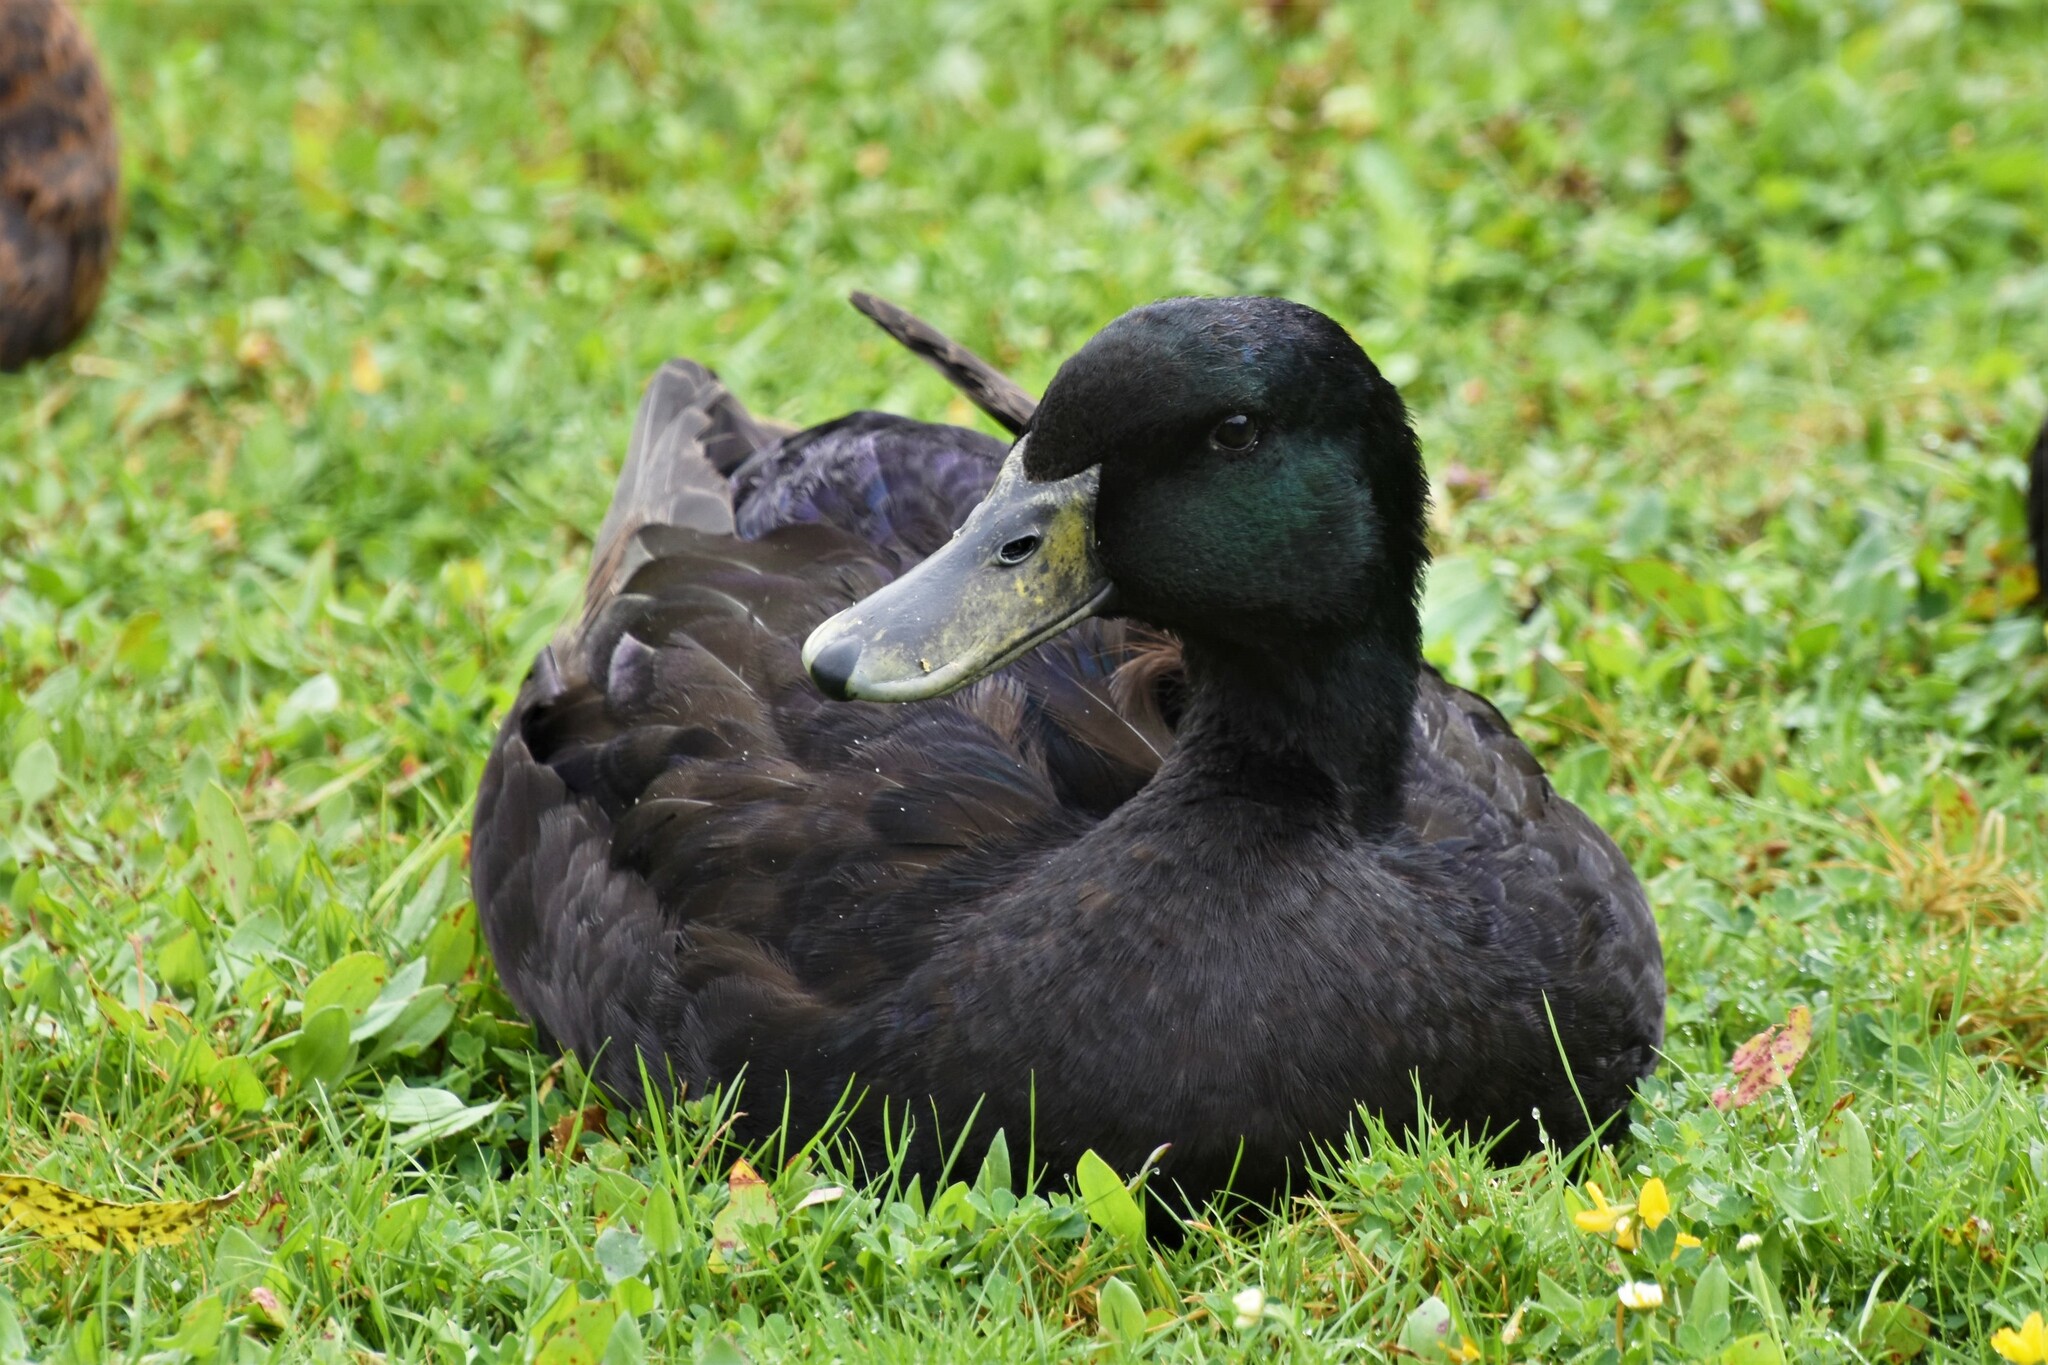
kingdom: Animalia
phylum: Chordata
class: Aves
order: Anseriformes
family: Anatidae
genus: Anas
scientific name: Anas platyrhynchos
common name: Mallard
